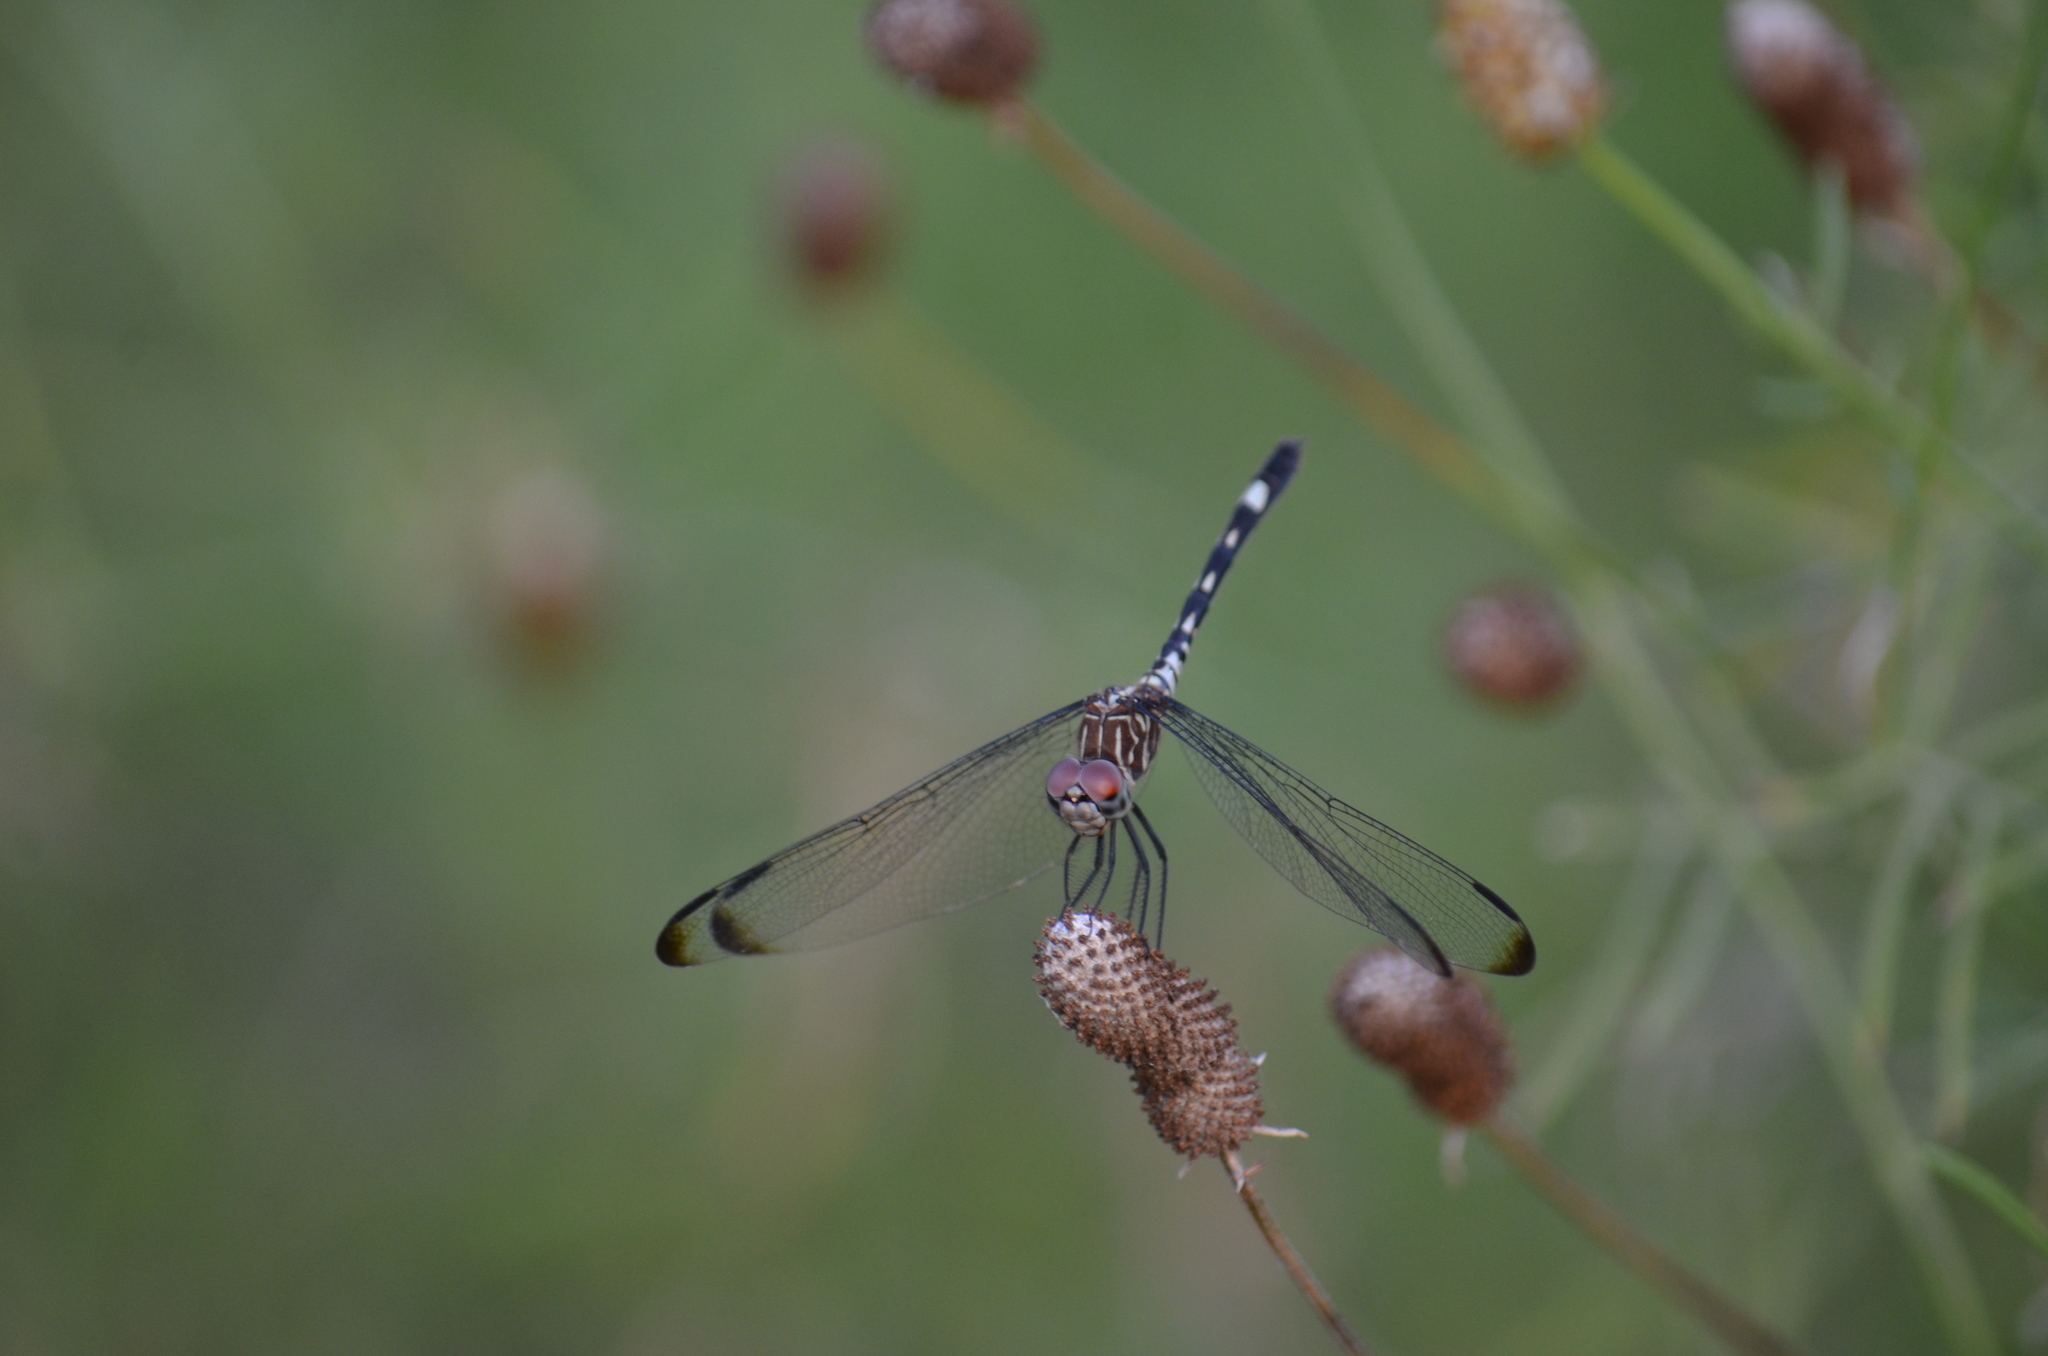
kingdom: Animalia
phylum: Arthropoda
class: Insecta
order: Odonata
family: Libellulidae
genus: Dythemis
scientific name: Dythemis velox
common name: Swift setwing
